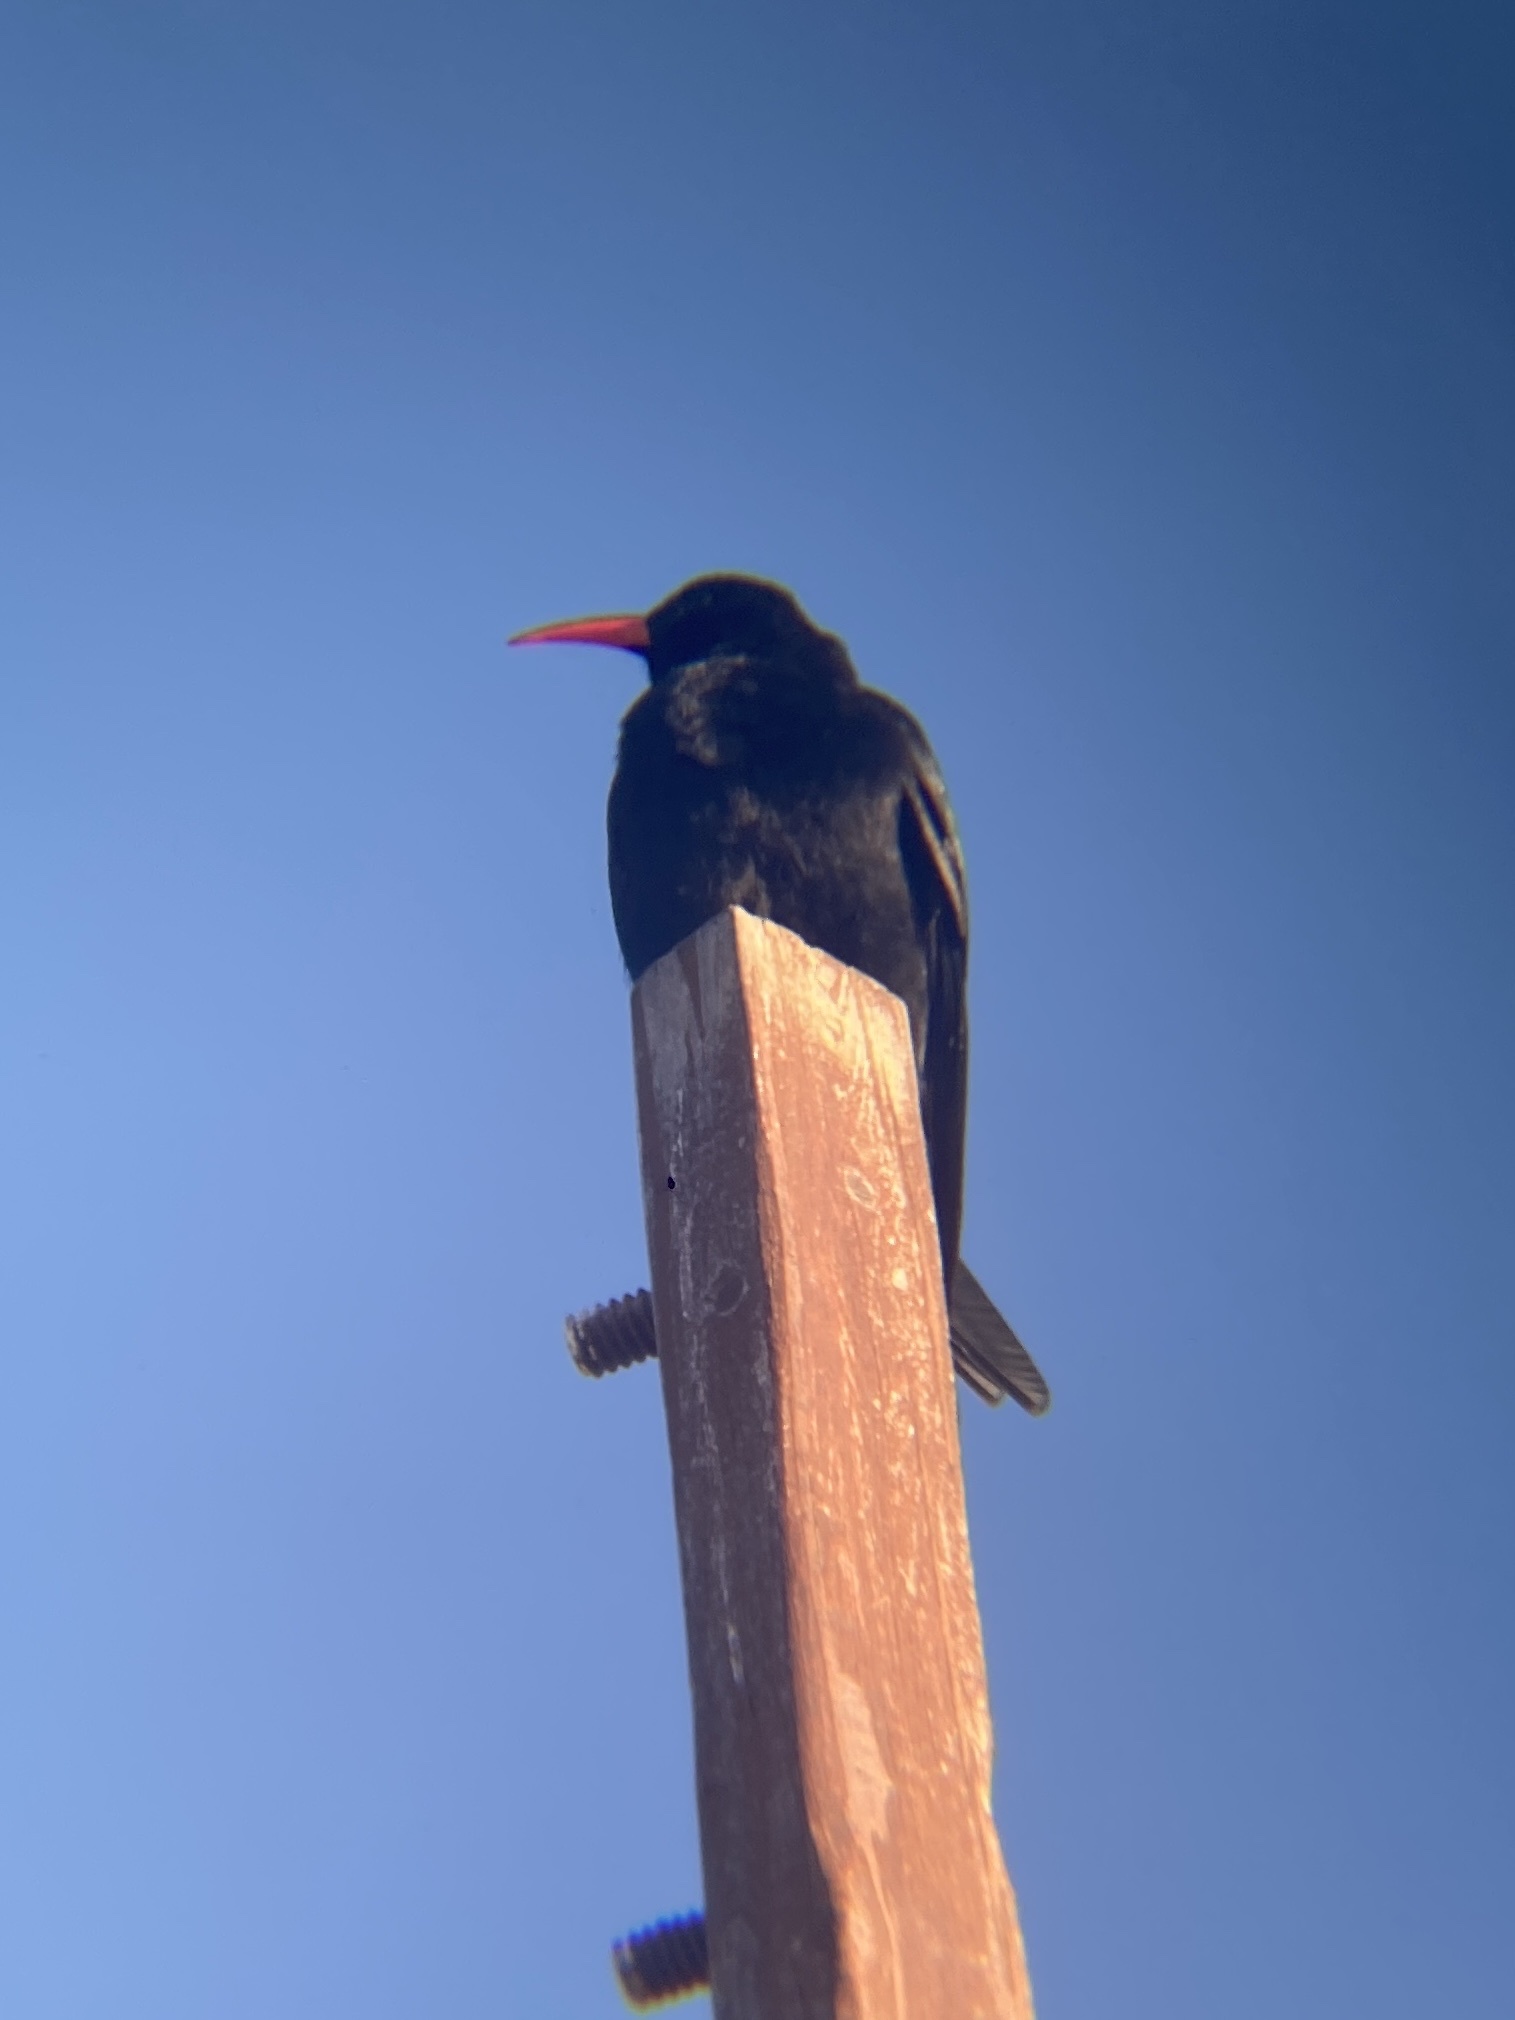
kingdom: Animalia
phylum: Chordata
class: Aves
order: Passeriformes
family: Corvidae
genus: Pyrrhocorax
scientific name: Pyrrhocorax pyrrhocorax
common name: Red-billed chough
